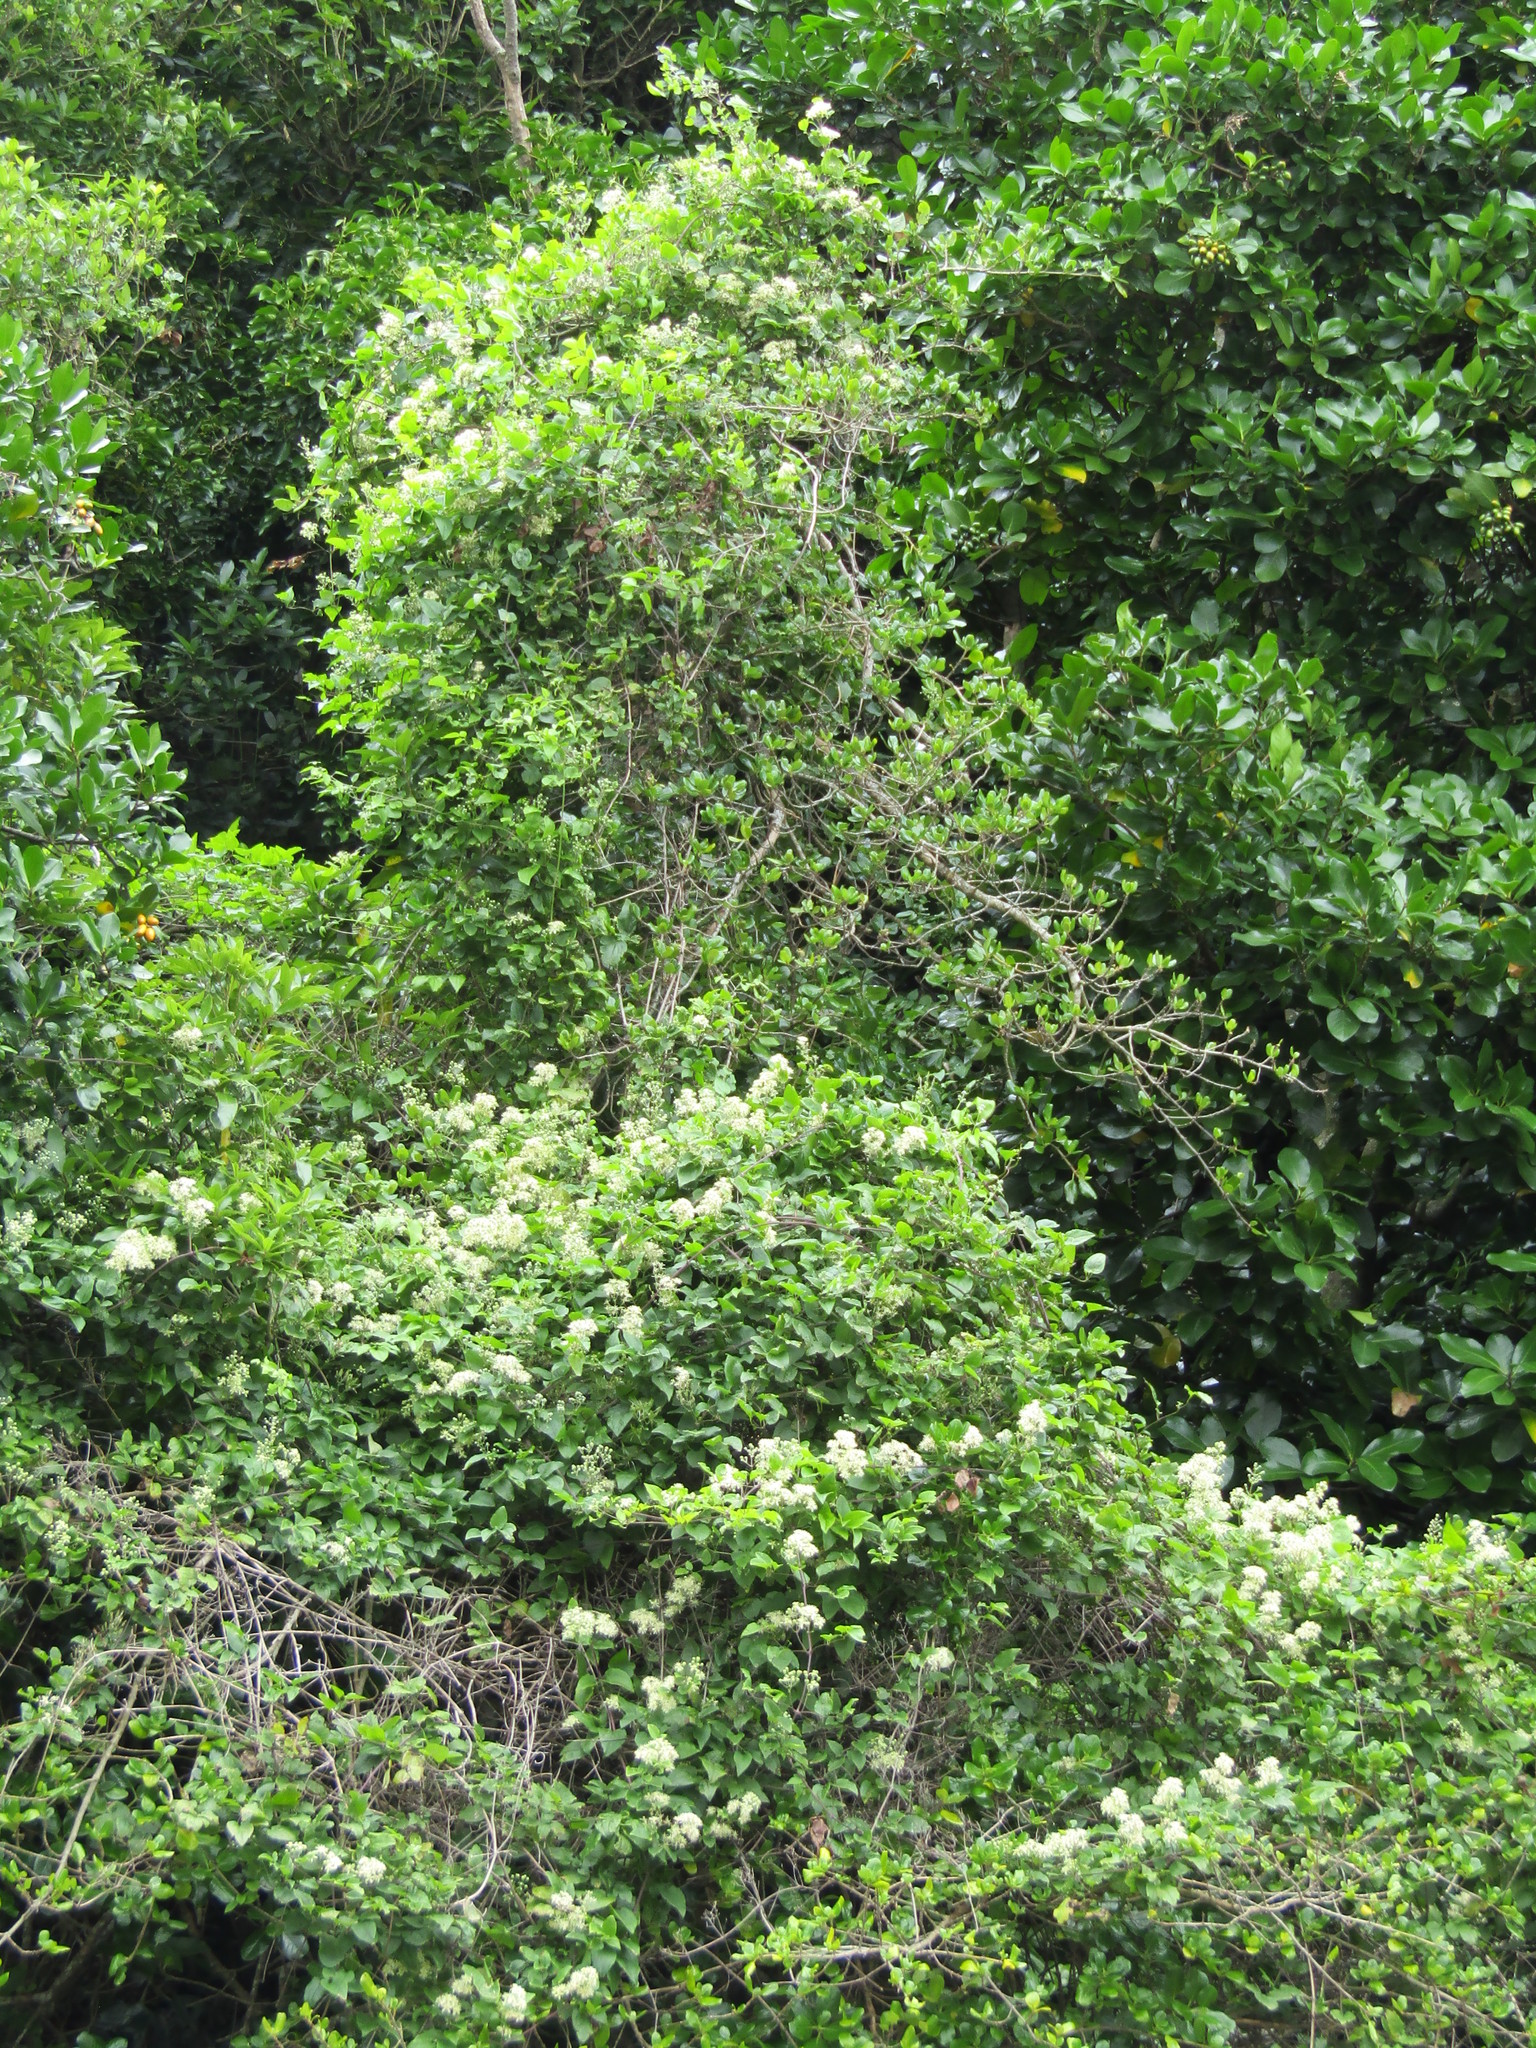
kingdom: Plantae
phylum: Tracheophyta
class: Magnoliopsida
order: Ranunculales
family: Ranunculaceae
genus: Clematis
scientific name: Clematis vitalba
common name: Evergreen clematis
